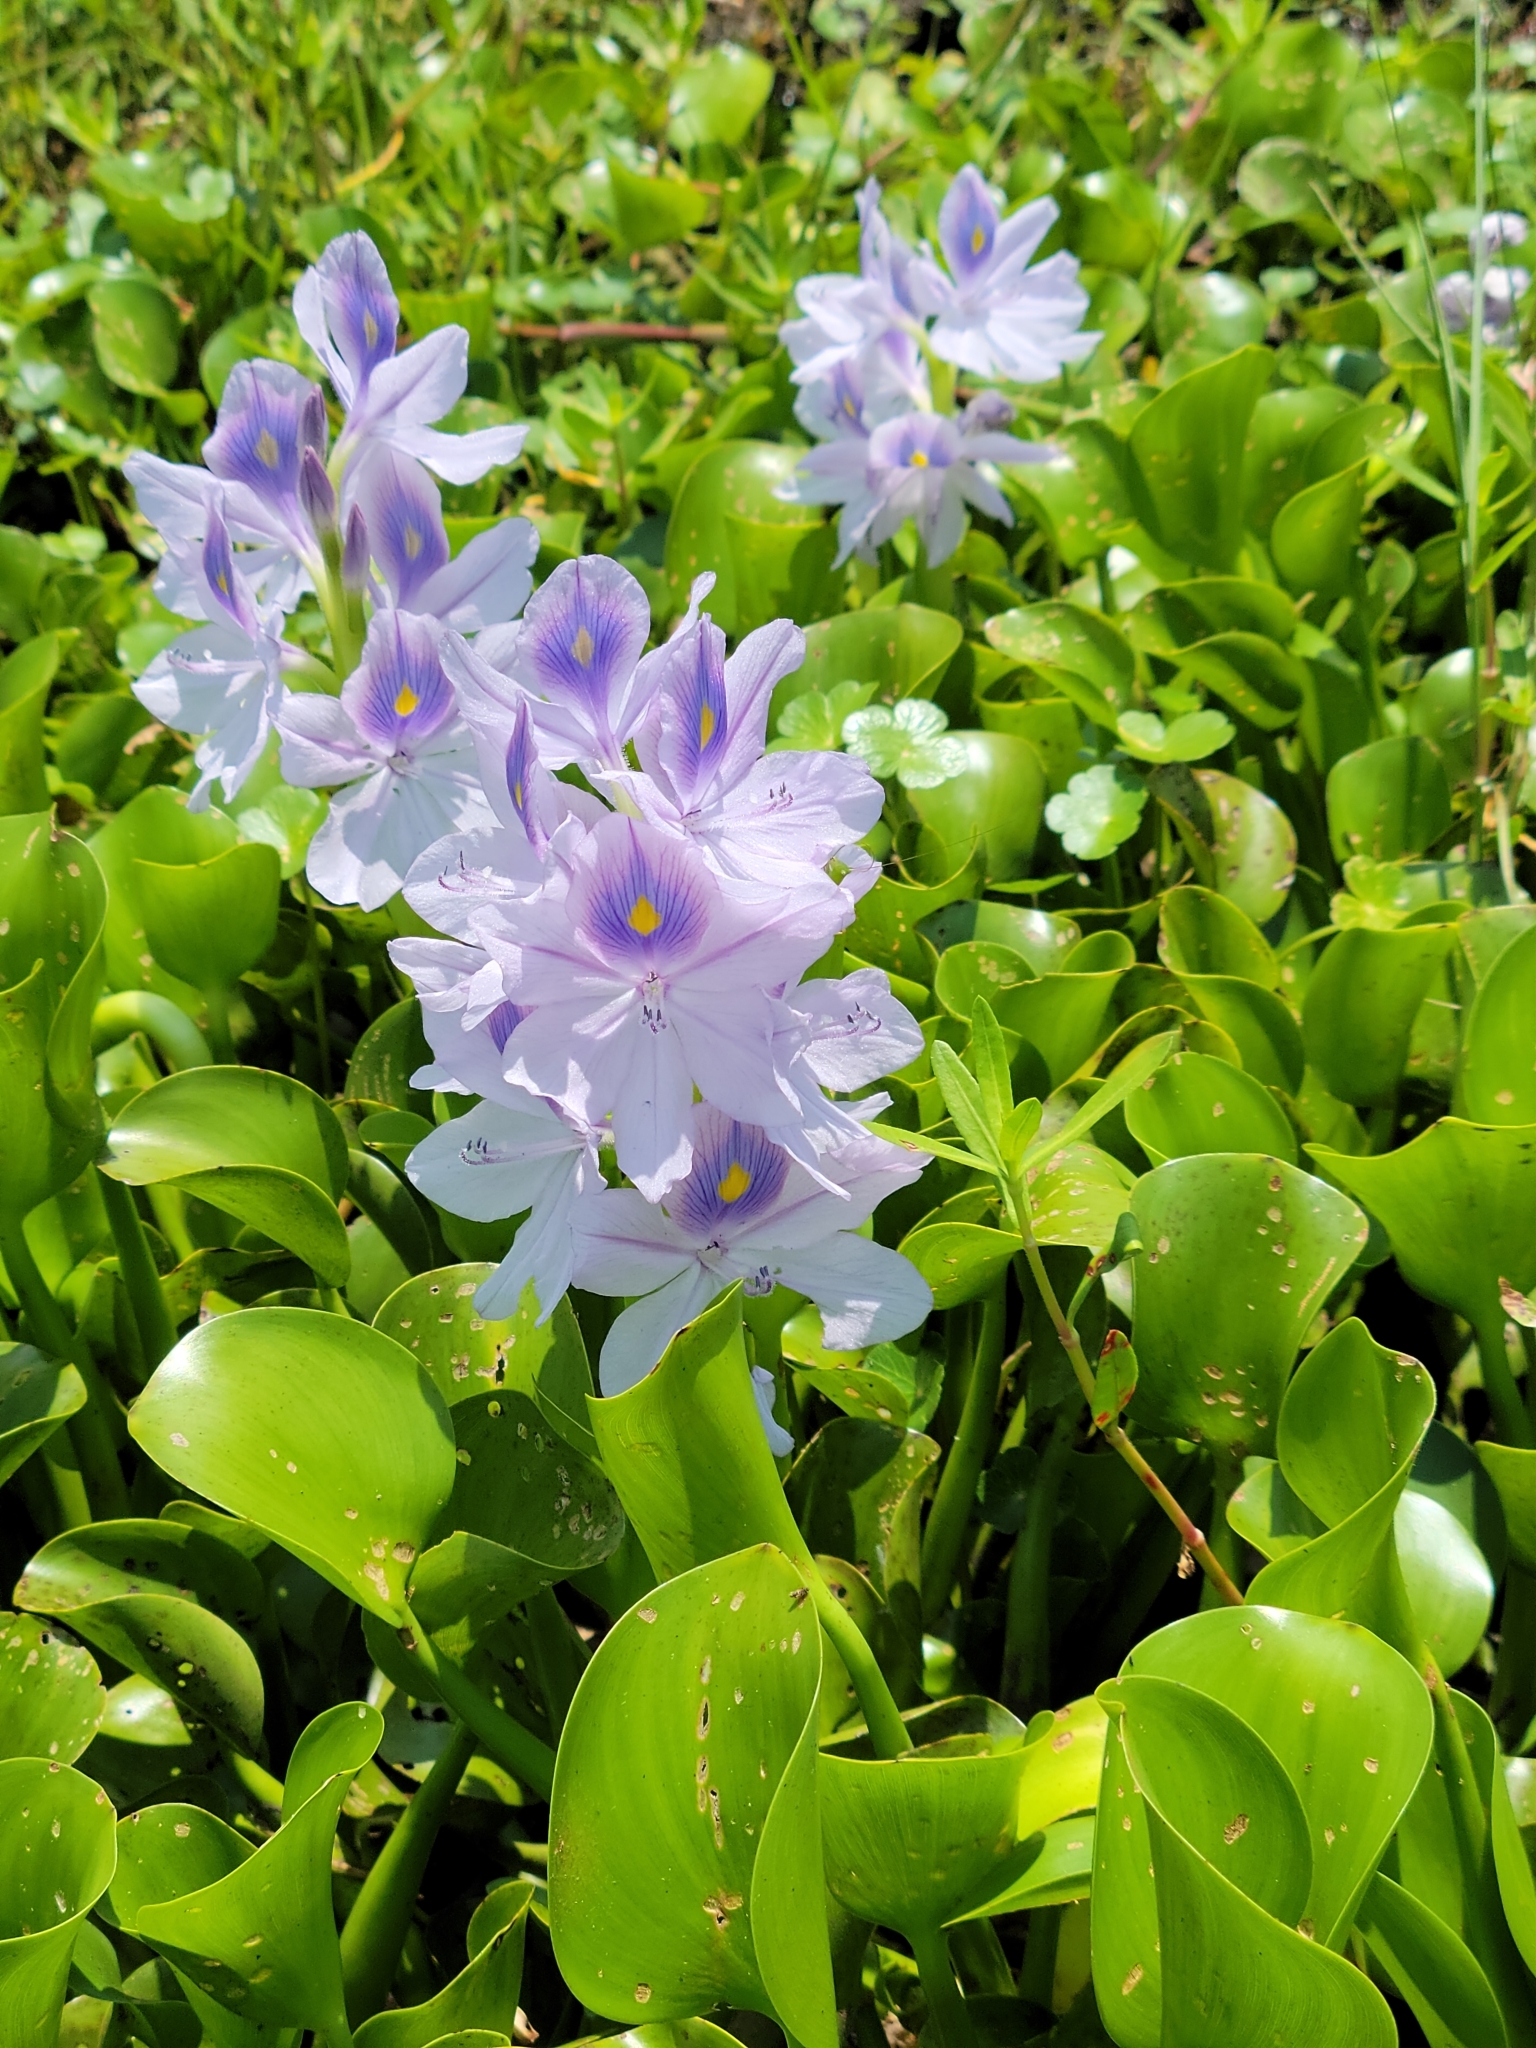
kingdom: Plantae
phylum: Tracheophyta
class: Liliopsida
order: Commelinales
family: Pontederiaceae
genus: Pontederia
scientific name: Pontederia crassipes
